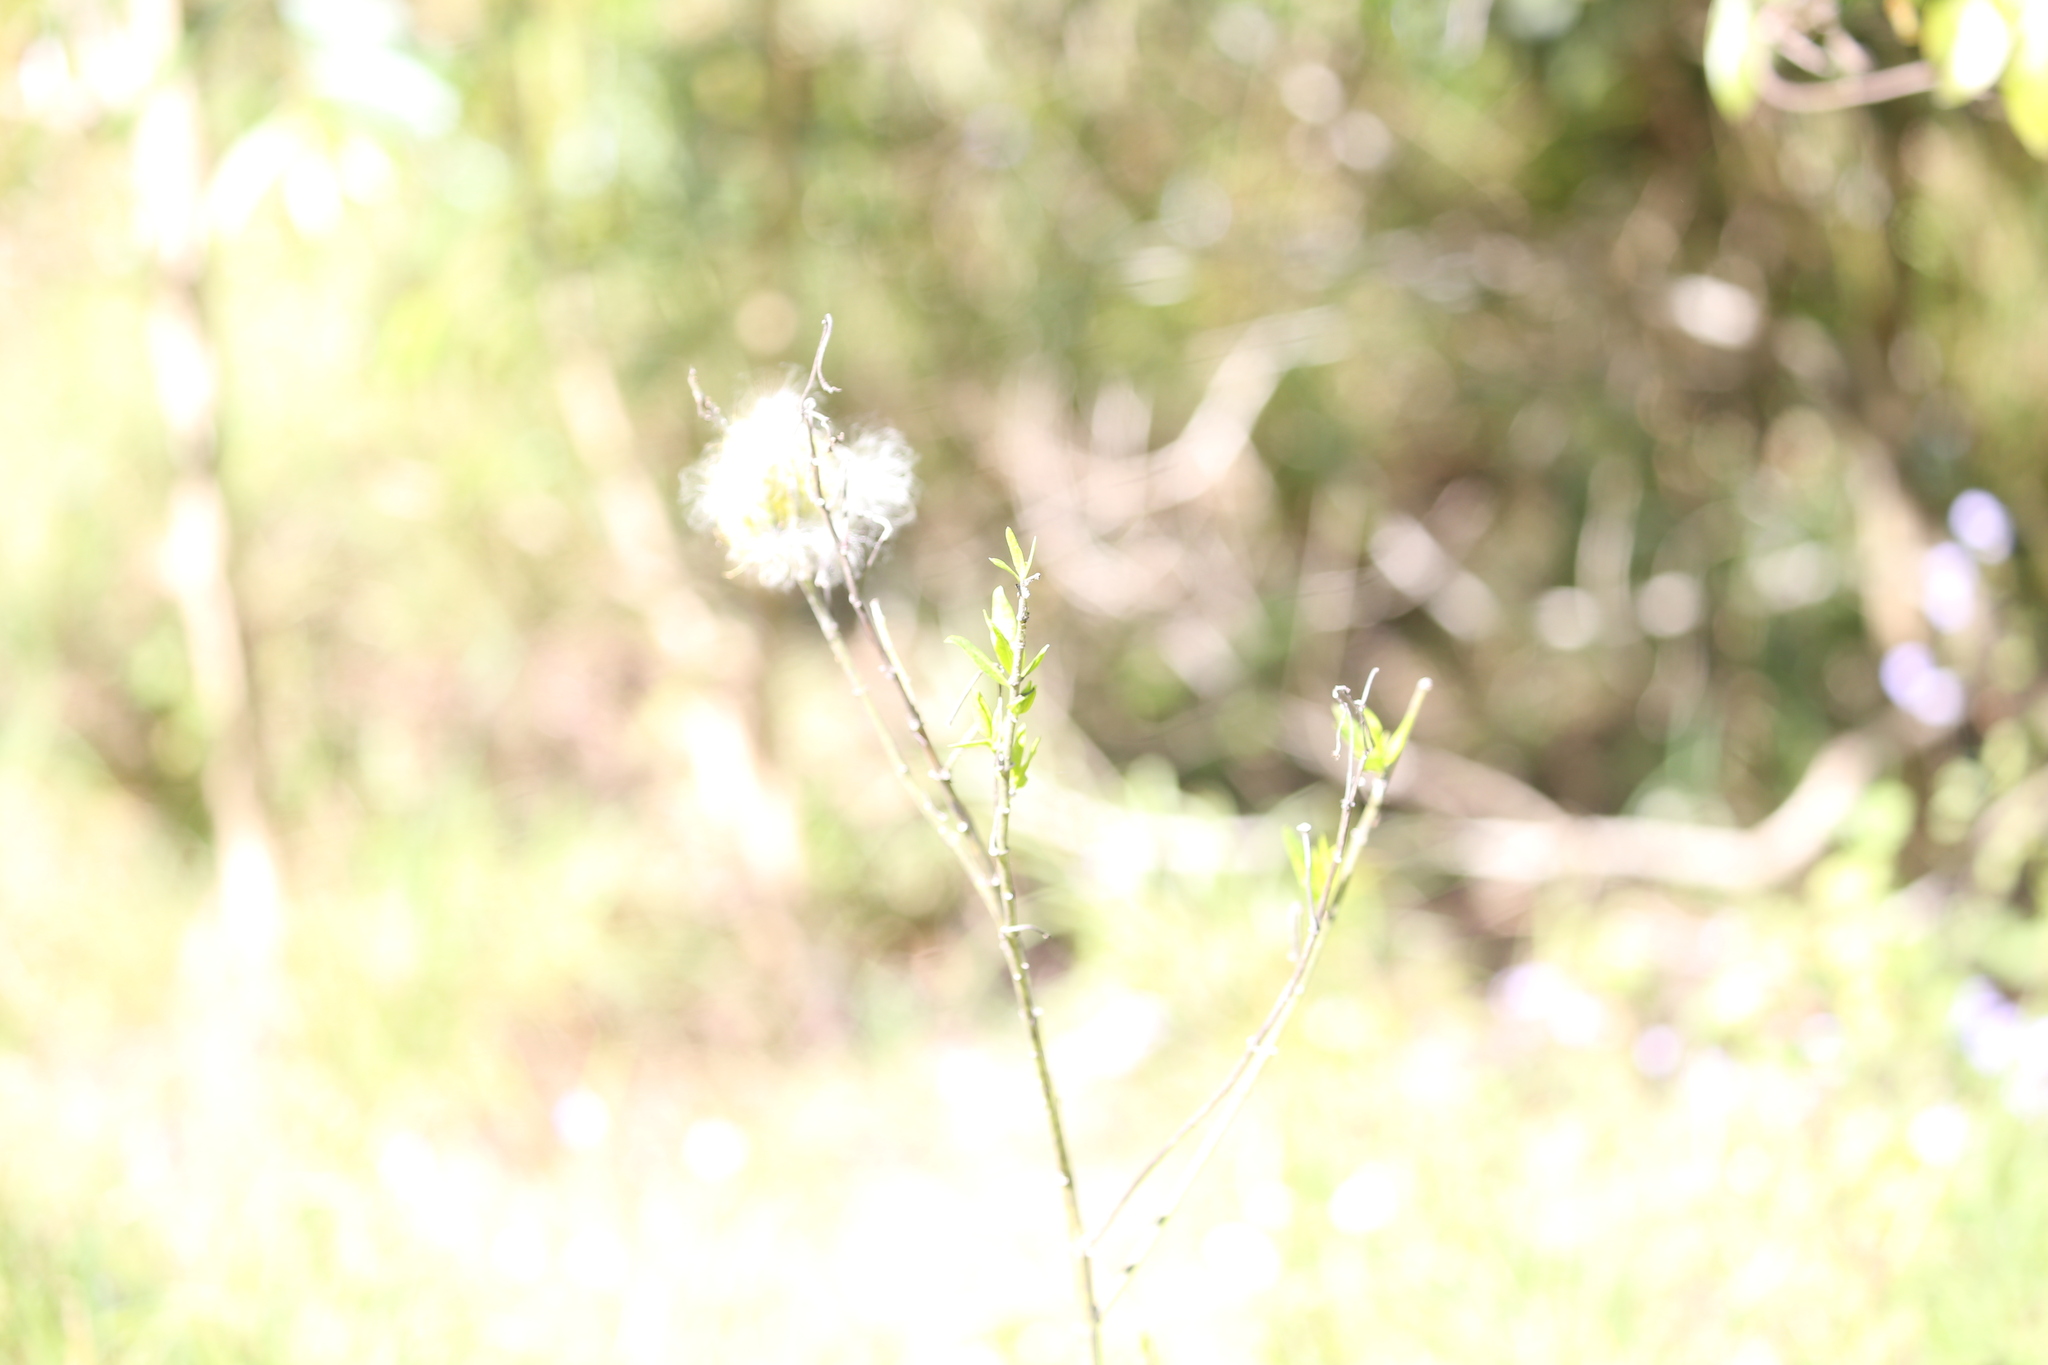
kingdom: Plantae
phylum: Tracheophyta
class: Magnoliopsida
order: Gentianales
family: Apocynaceae
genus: Gomphocarpus
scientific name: Gomphocarpus physocarpus
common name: Balloon cotton bush
